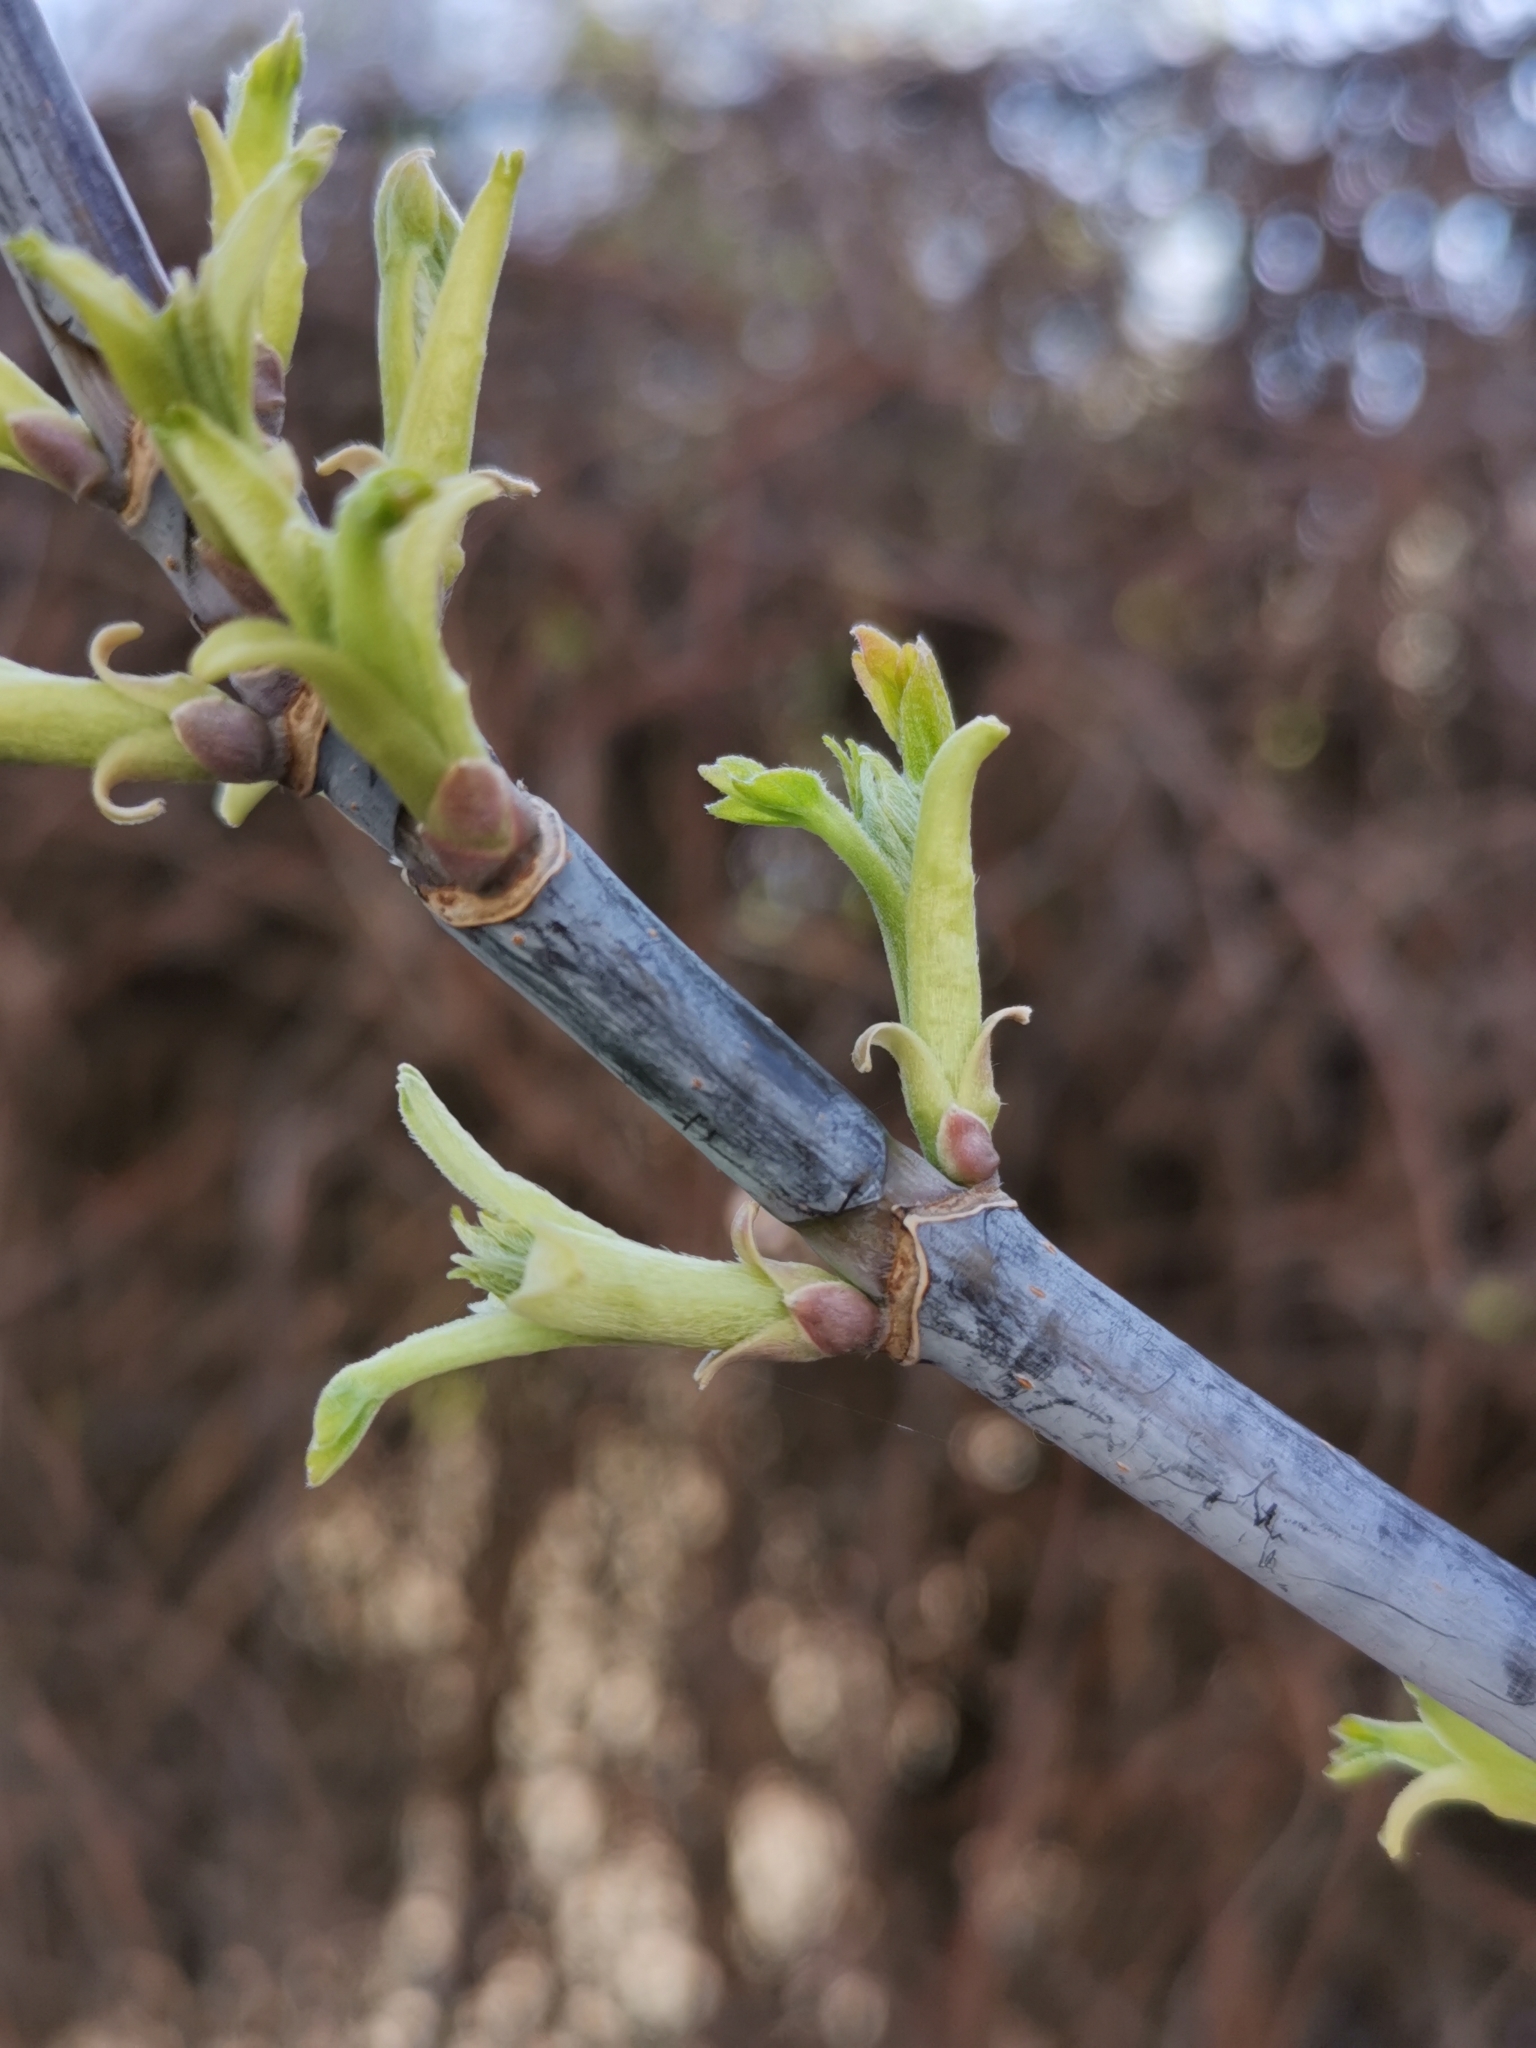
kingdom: Plantae
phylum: Tracheophyta
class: Magnoliopsida
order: Sapindales
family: Sapindaceae
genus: Acer
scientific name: Acer negundo
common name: Ashleaf maple
